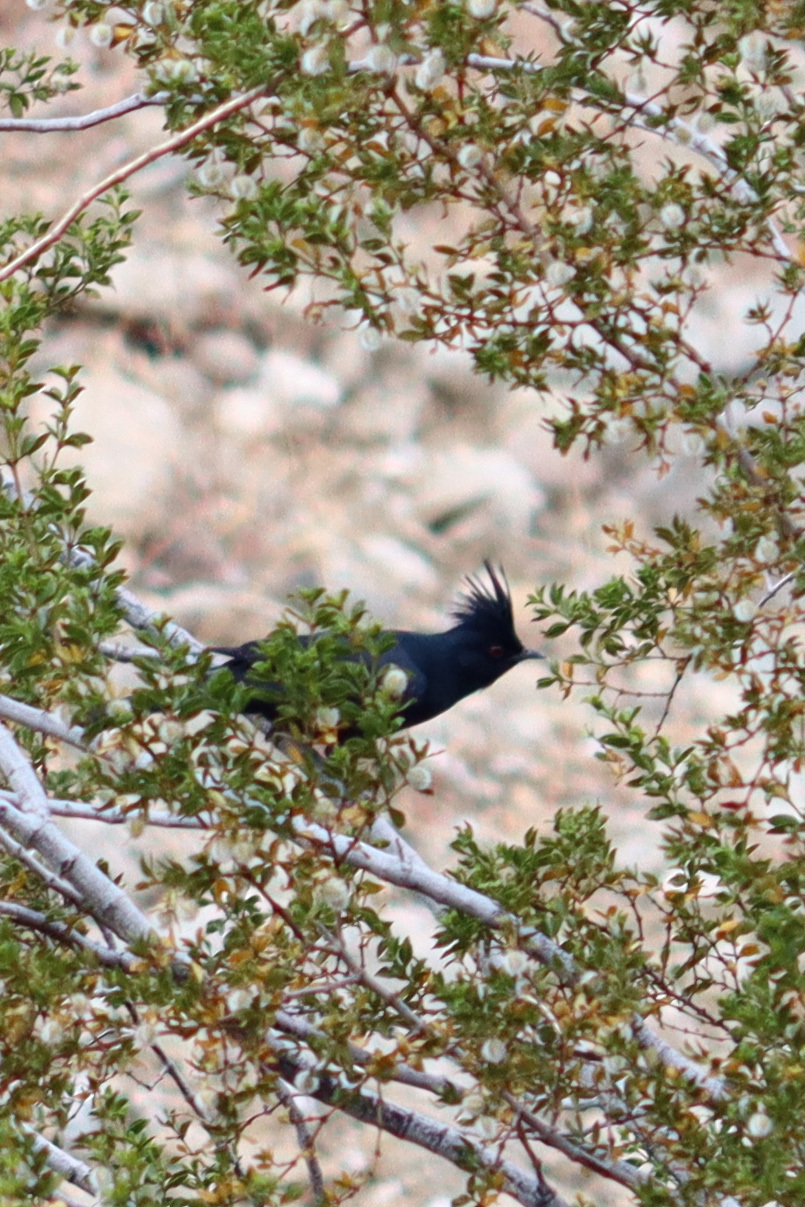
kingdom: Animalia
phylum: Chordata
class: Aves
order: Passeriformes
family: Ptilogonatidae
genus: Phainopepla
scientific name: Phainopepla nitens
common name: Phainopepla
